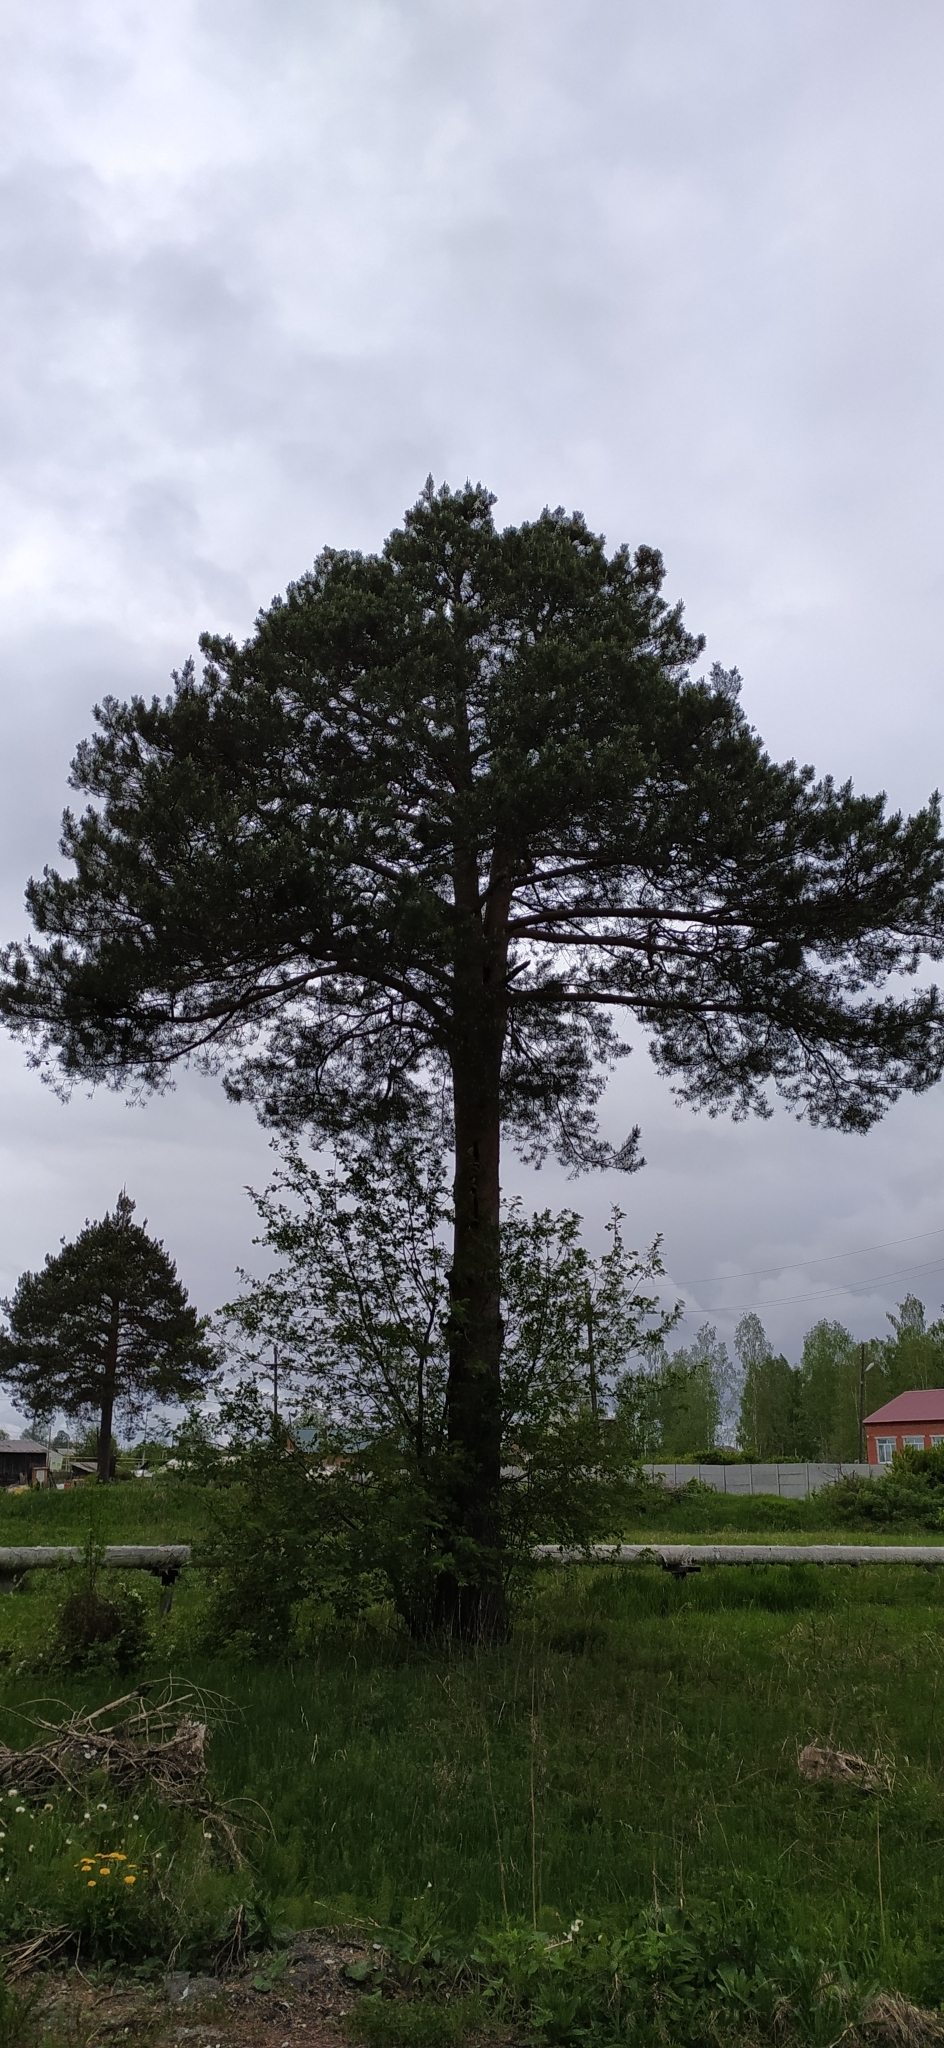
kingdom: Plantae
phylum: Tracheophyta
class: Pinopsida
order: Pinales
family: Pinaceae
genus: Pinus
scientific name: Pinus sylvestris
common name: Scots pine
